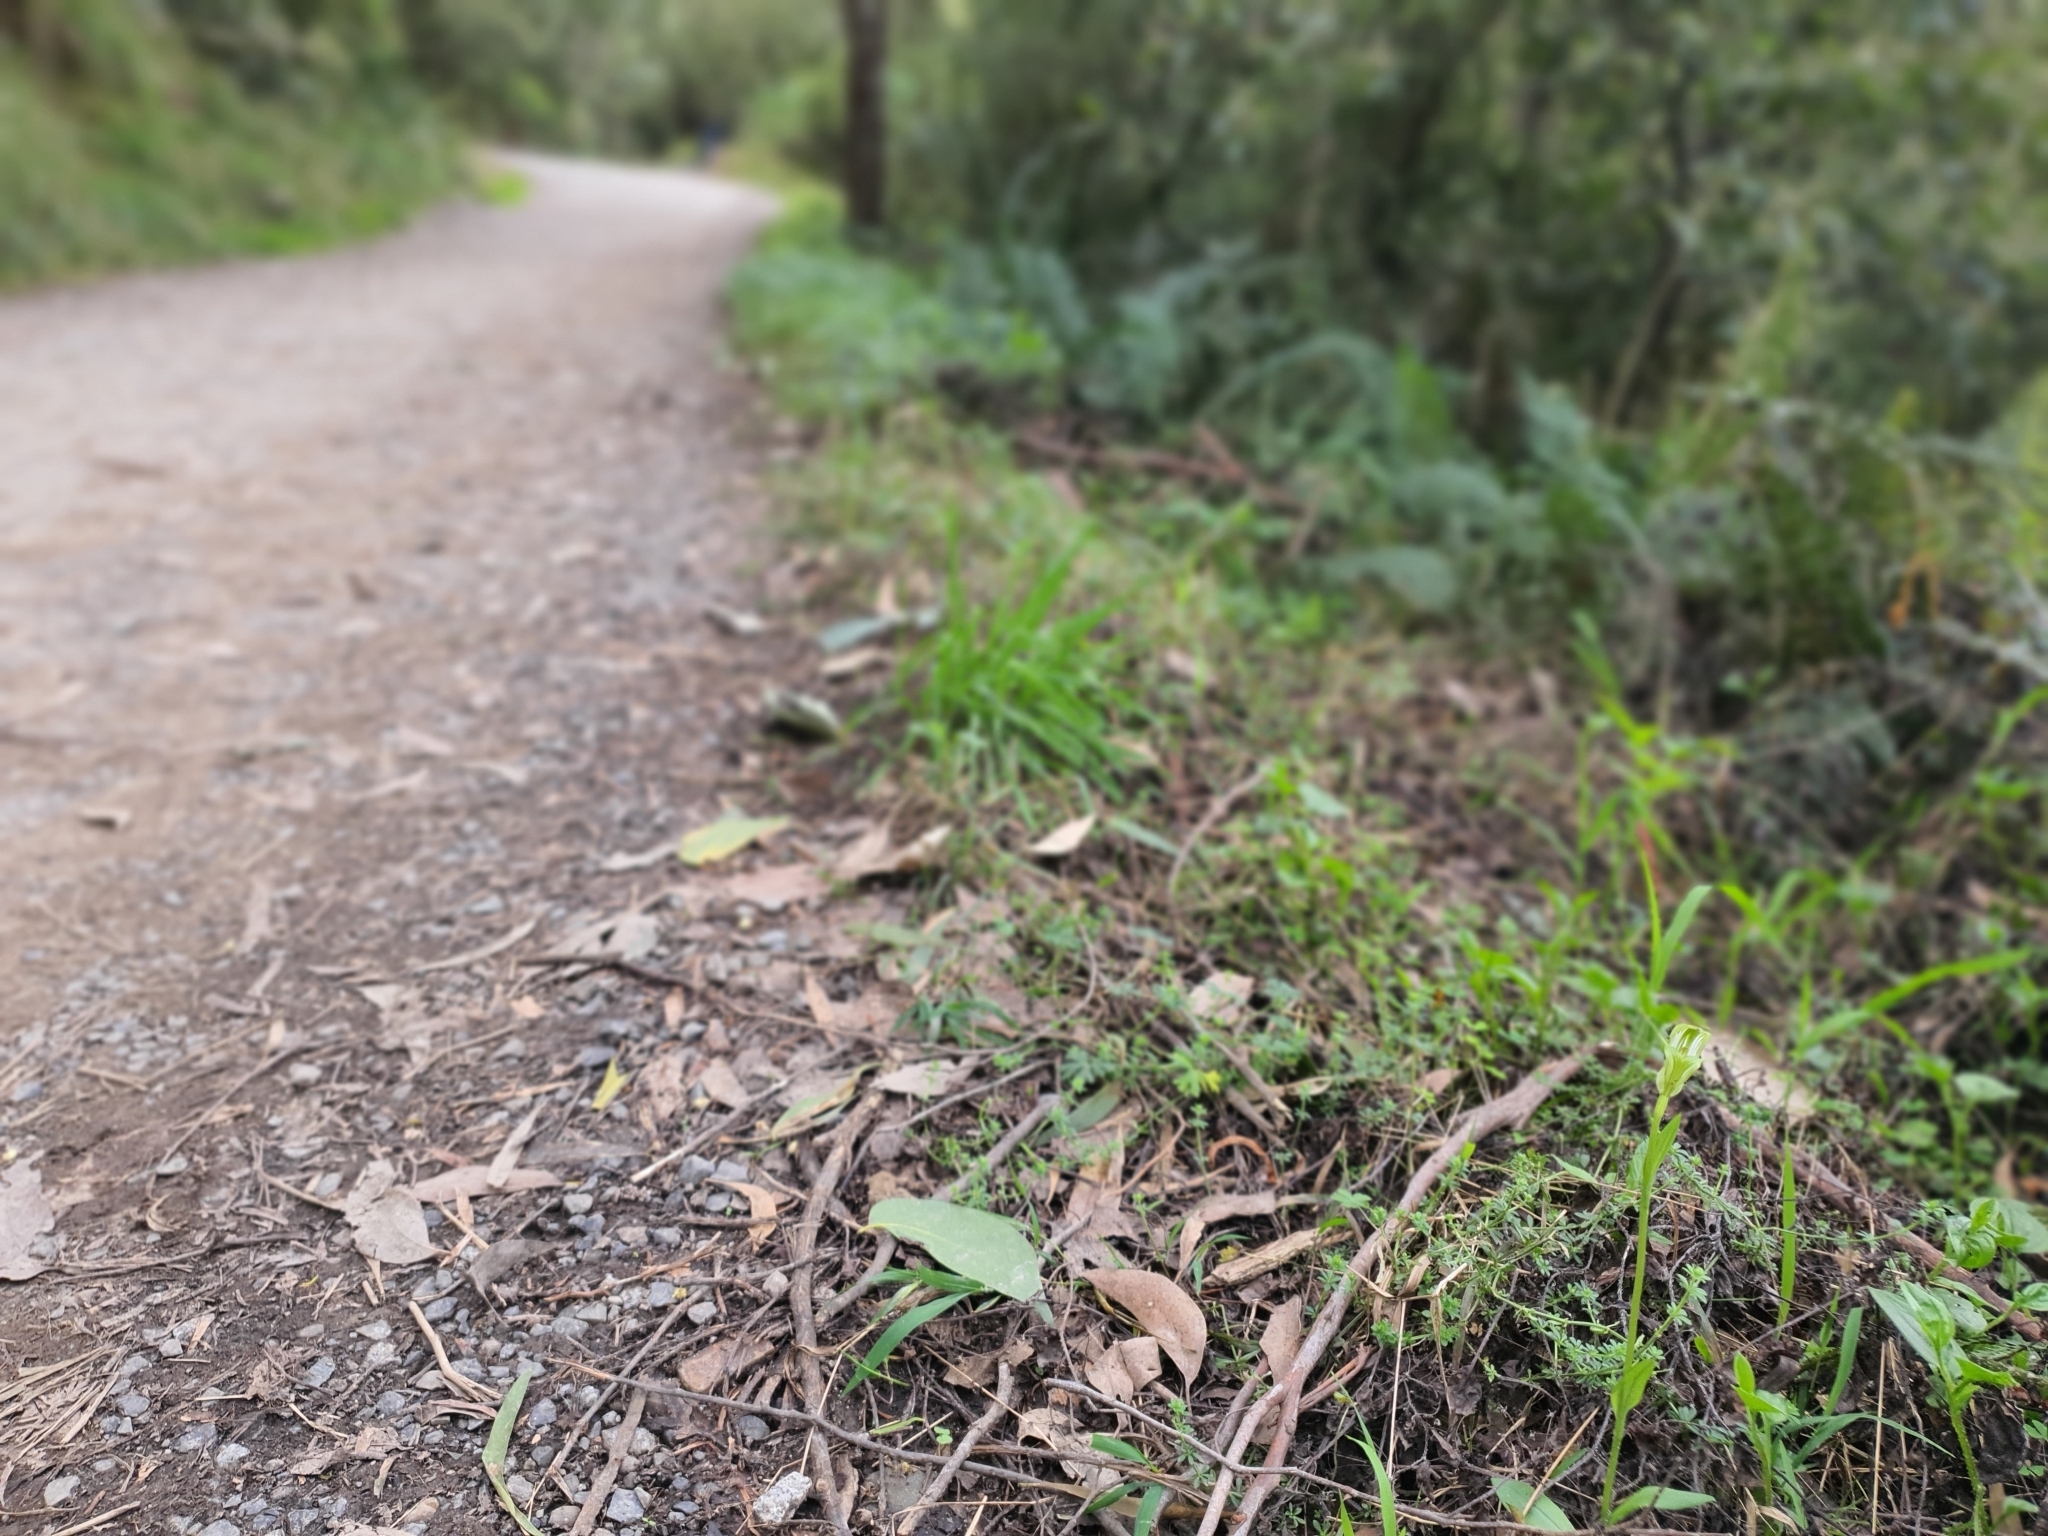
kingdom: Plantae
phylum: Tracheophyta
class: Liliopsida
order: Asparagales
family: Orchidaceae
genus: Pterostylis
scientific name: Pterostylis alpina
